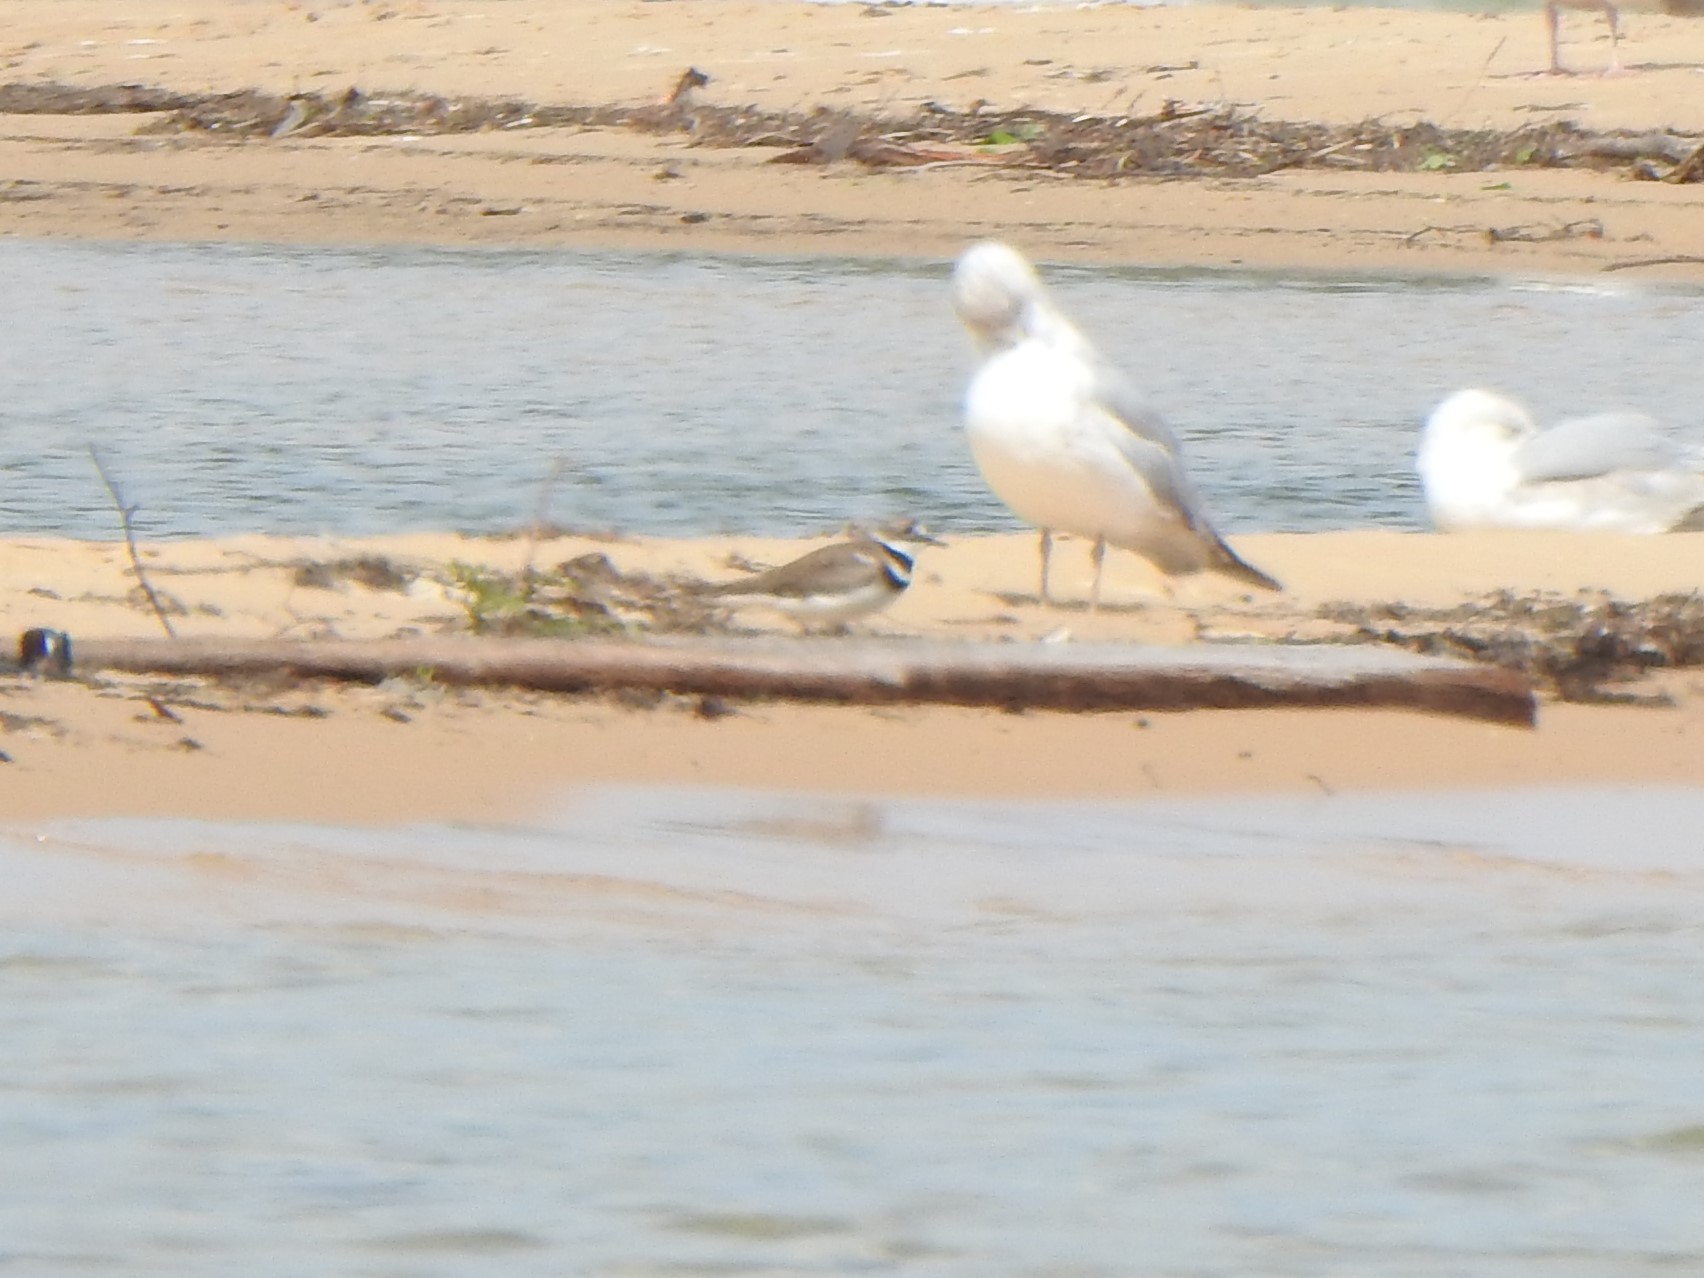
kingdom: Animalia
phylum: Chordata
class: Aves
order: Charadriiformes
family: Charadriidae
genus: Charadrius
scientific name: Charadrius vociferus
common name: Killdeer
